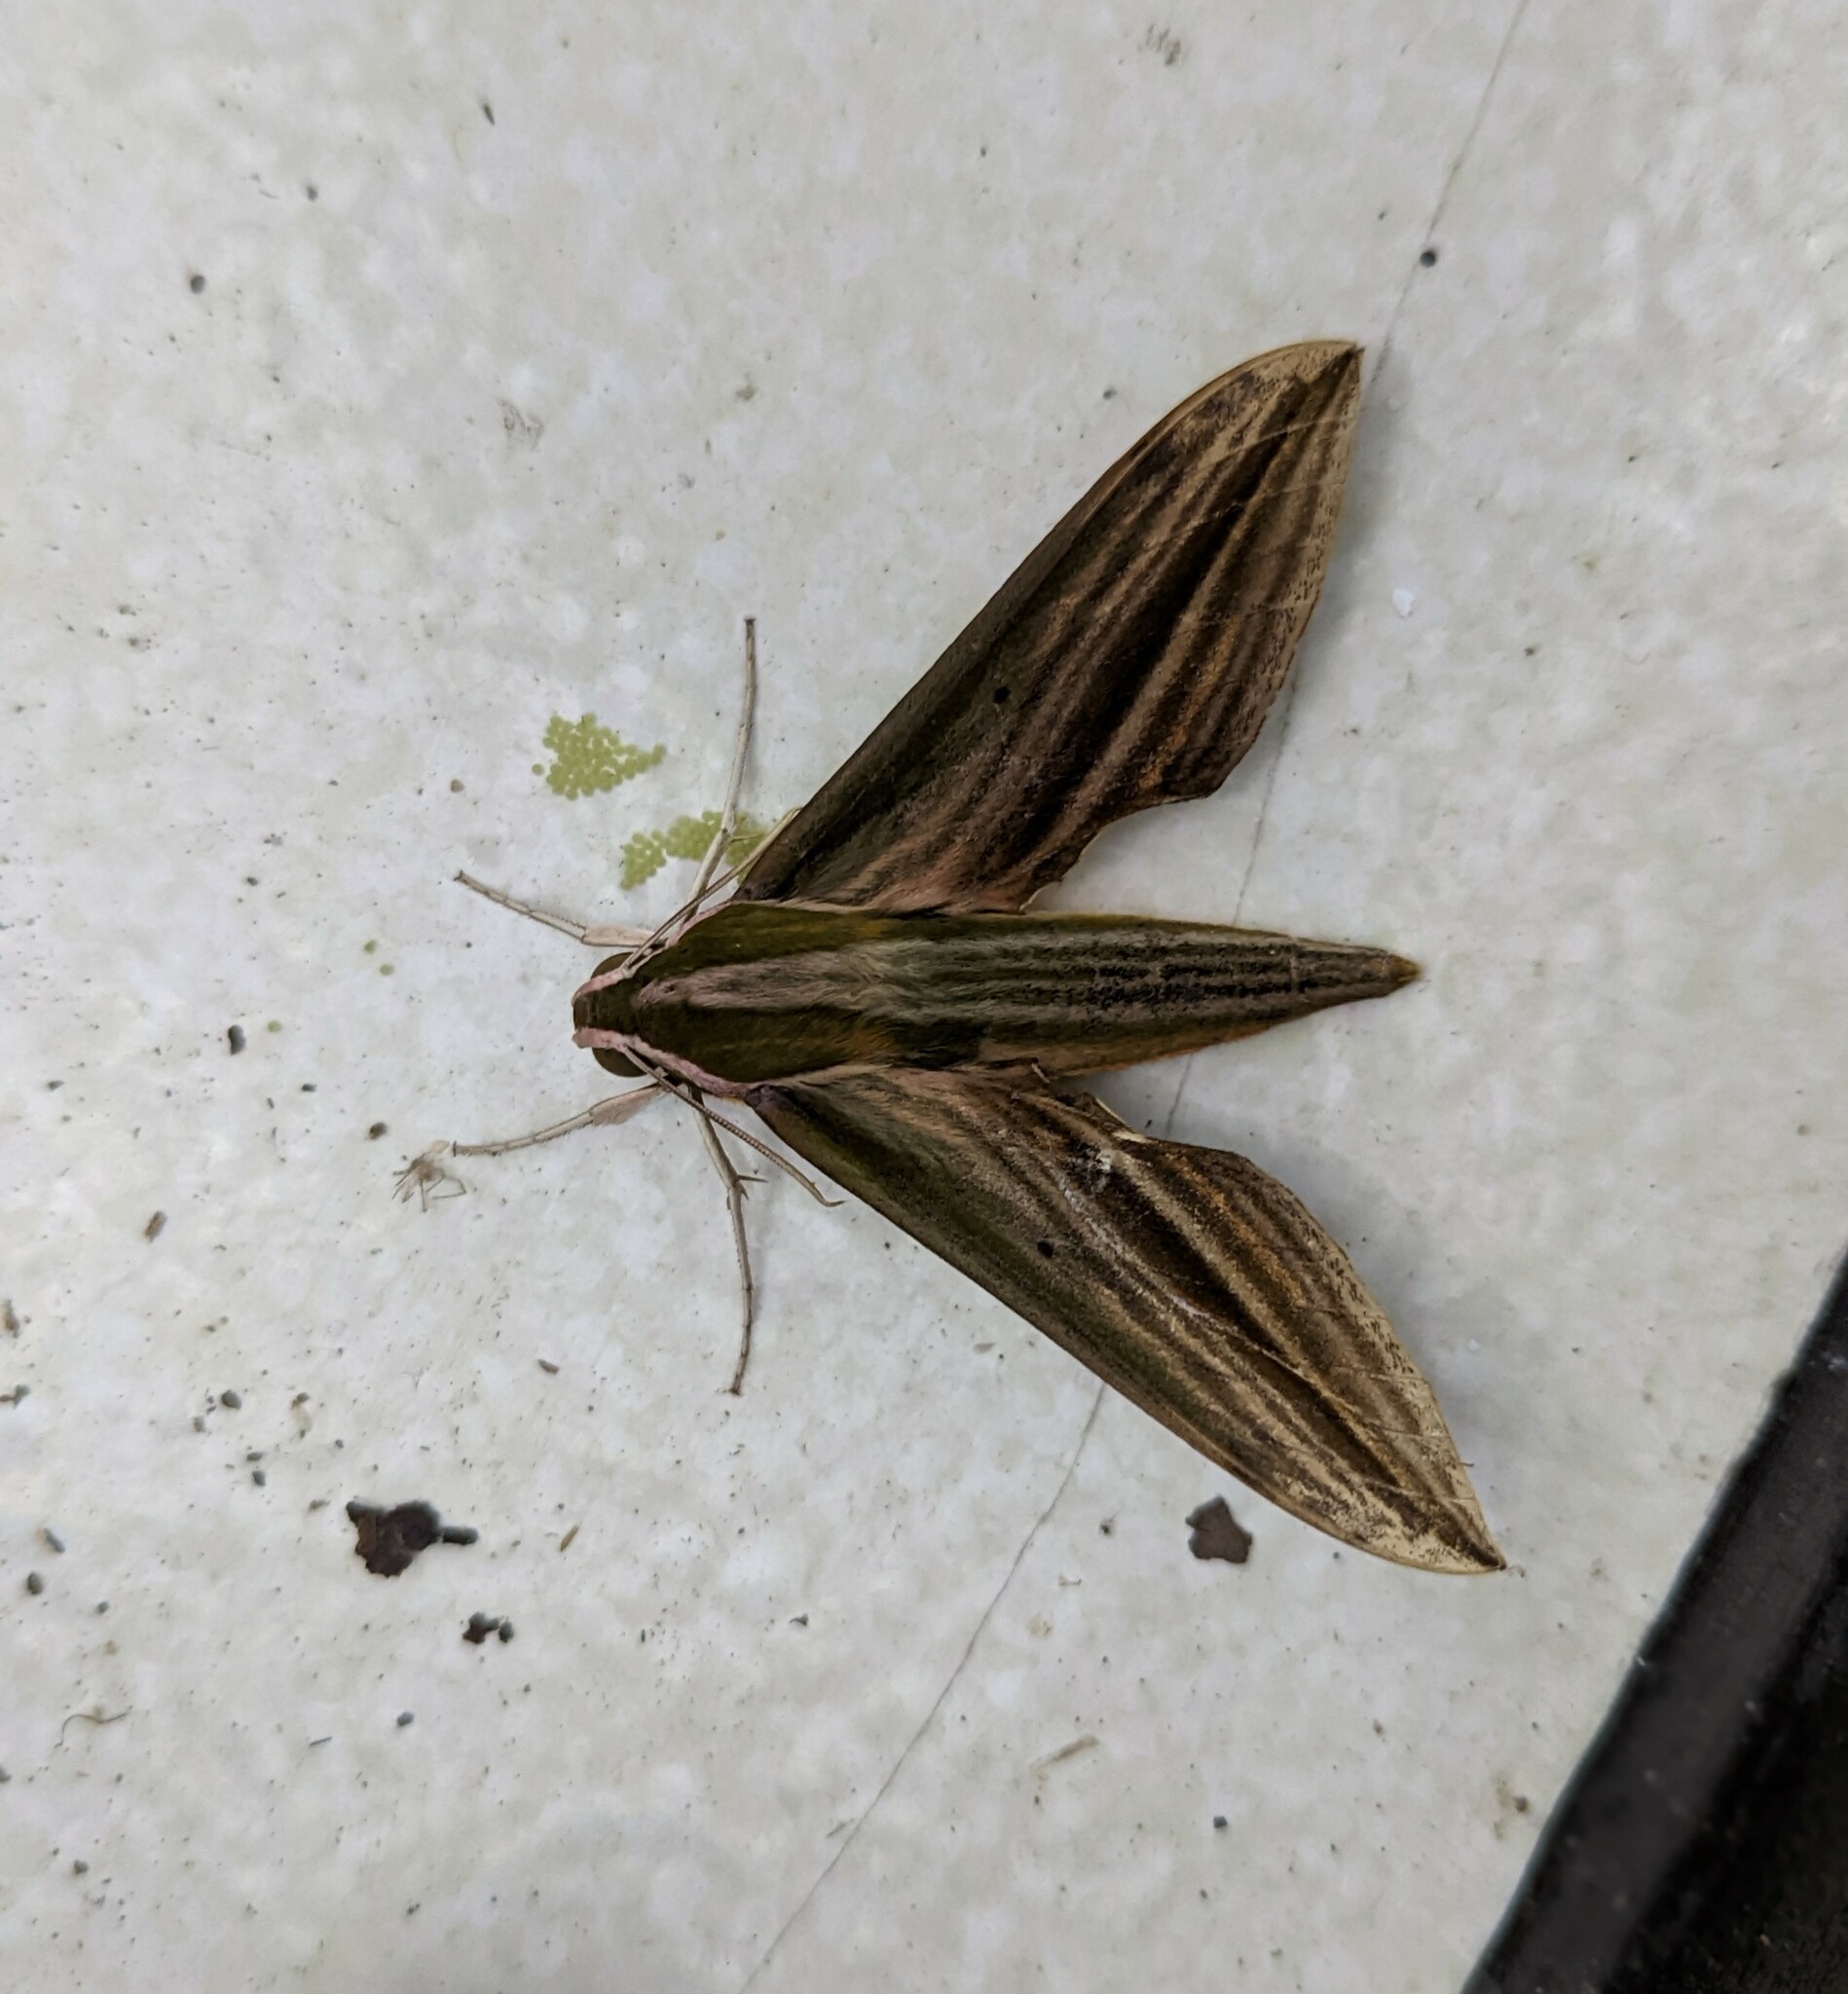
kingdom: Animalia
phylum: Arthropoda
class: Insecta
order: Lepidoptera
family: Sphingidae
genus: Cechetra
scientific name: Cechetra lineosa
